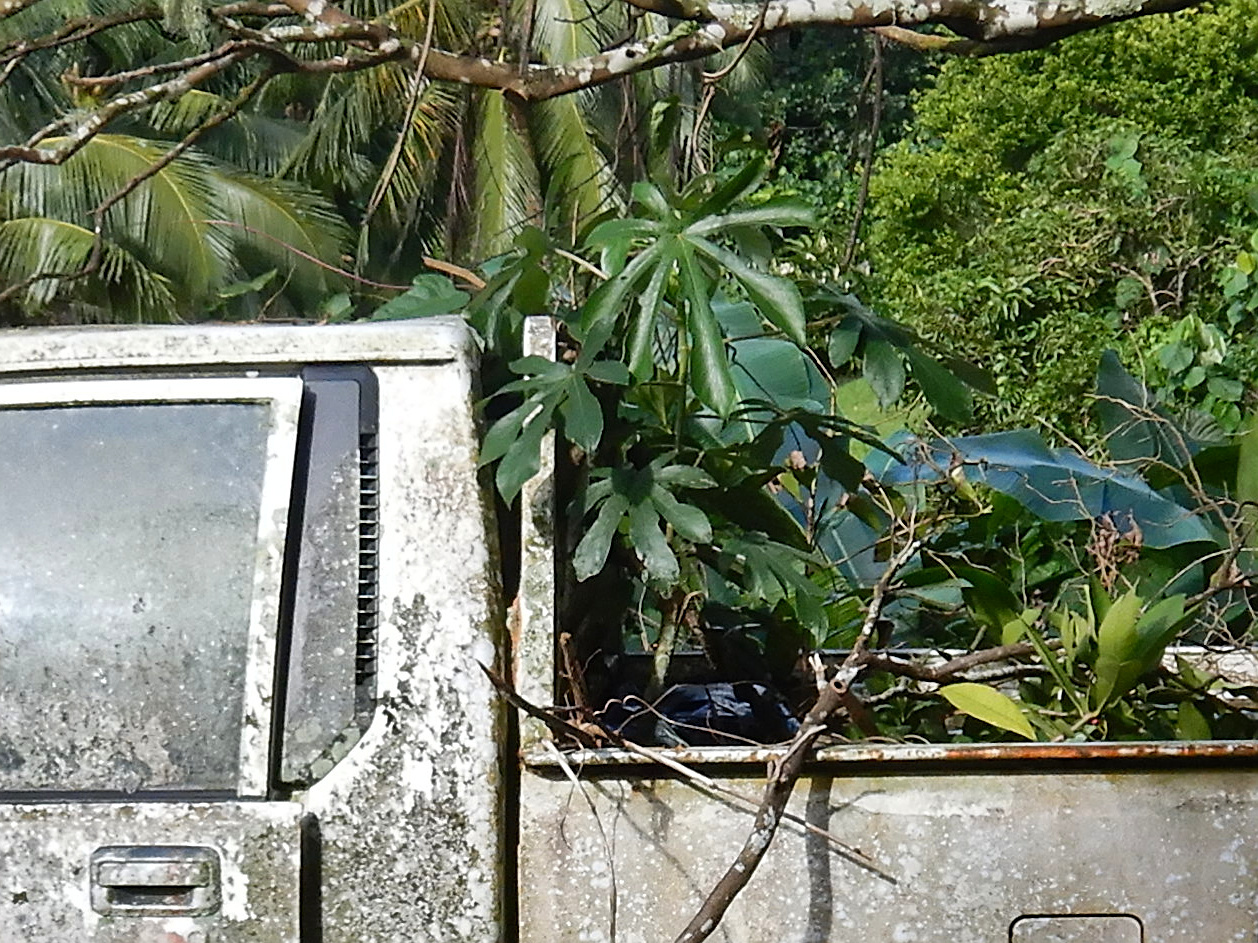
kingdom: Plantae
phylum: Tracheophyta
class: Magnoliopsida
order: Rosales
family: Urticaceae
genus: Cecropia
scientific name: Cecropia pachystachya
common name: Ambay pumpwood
